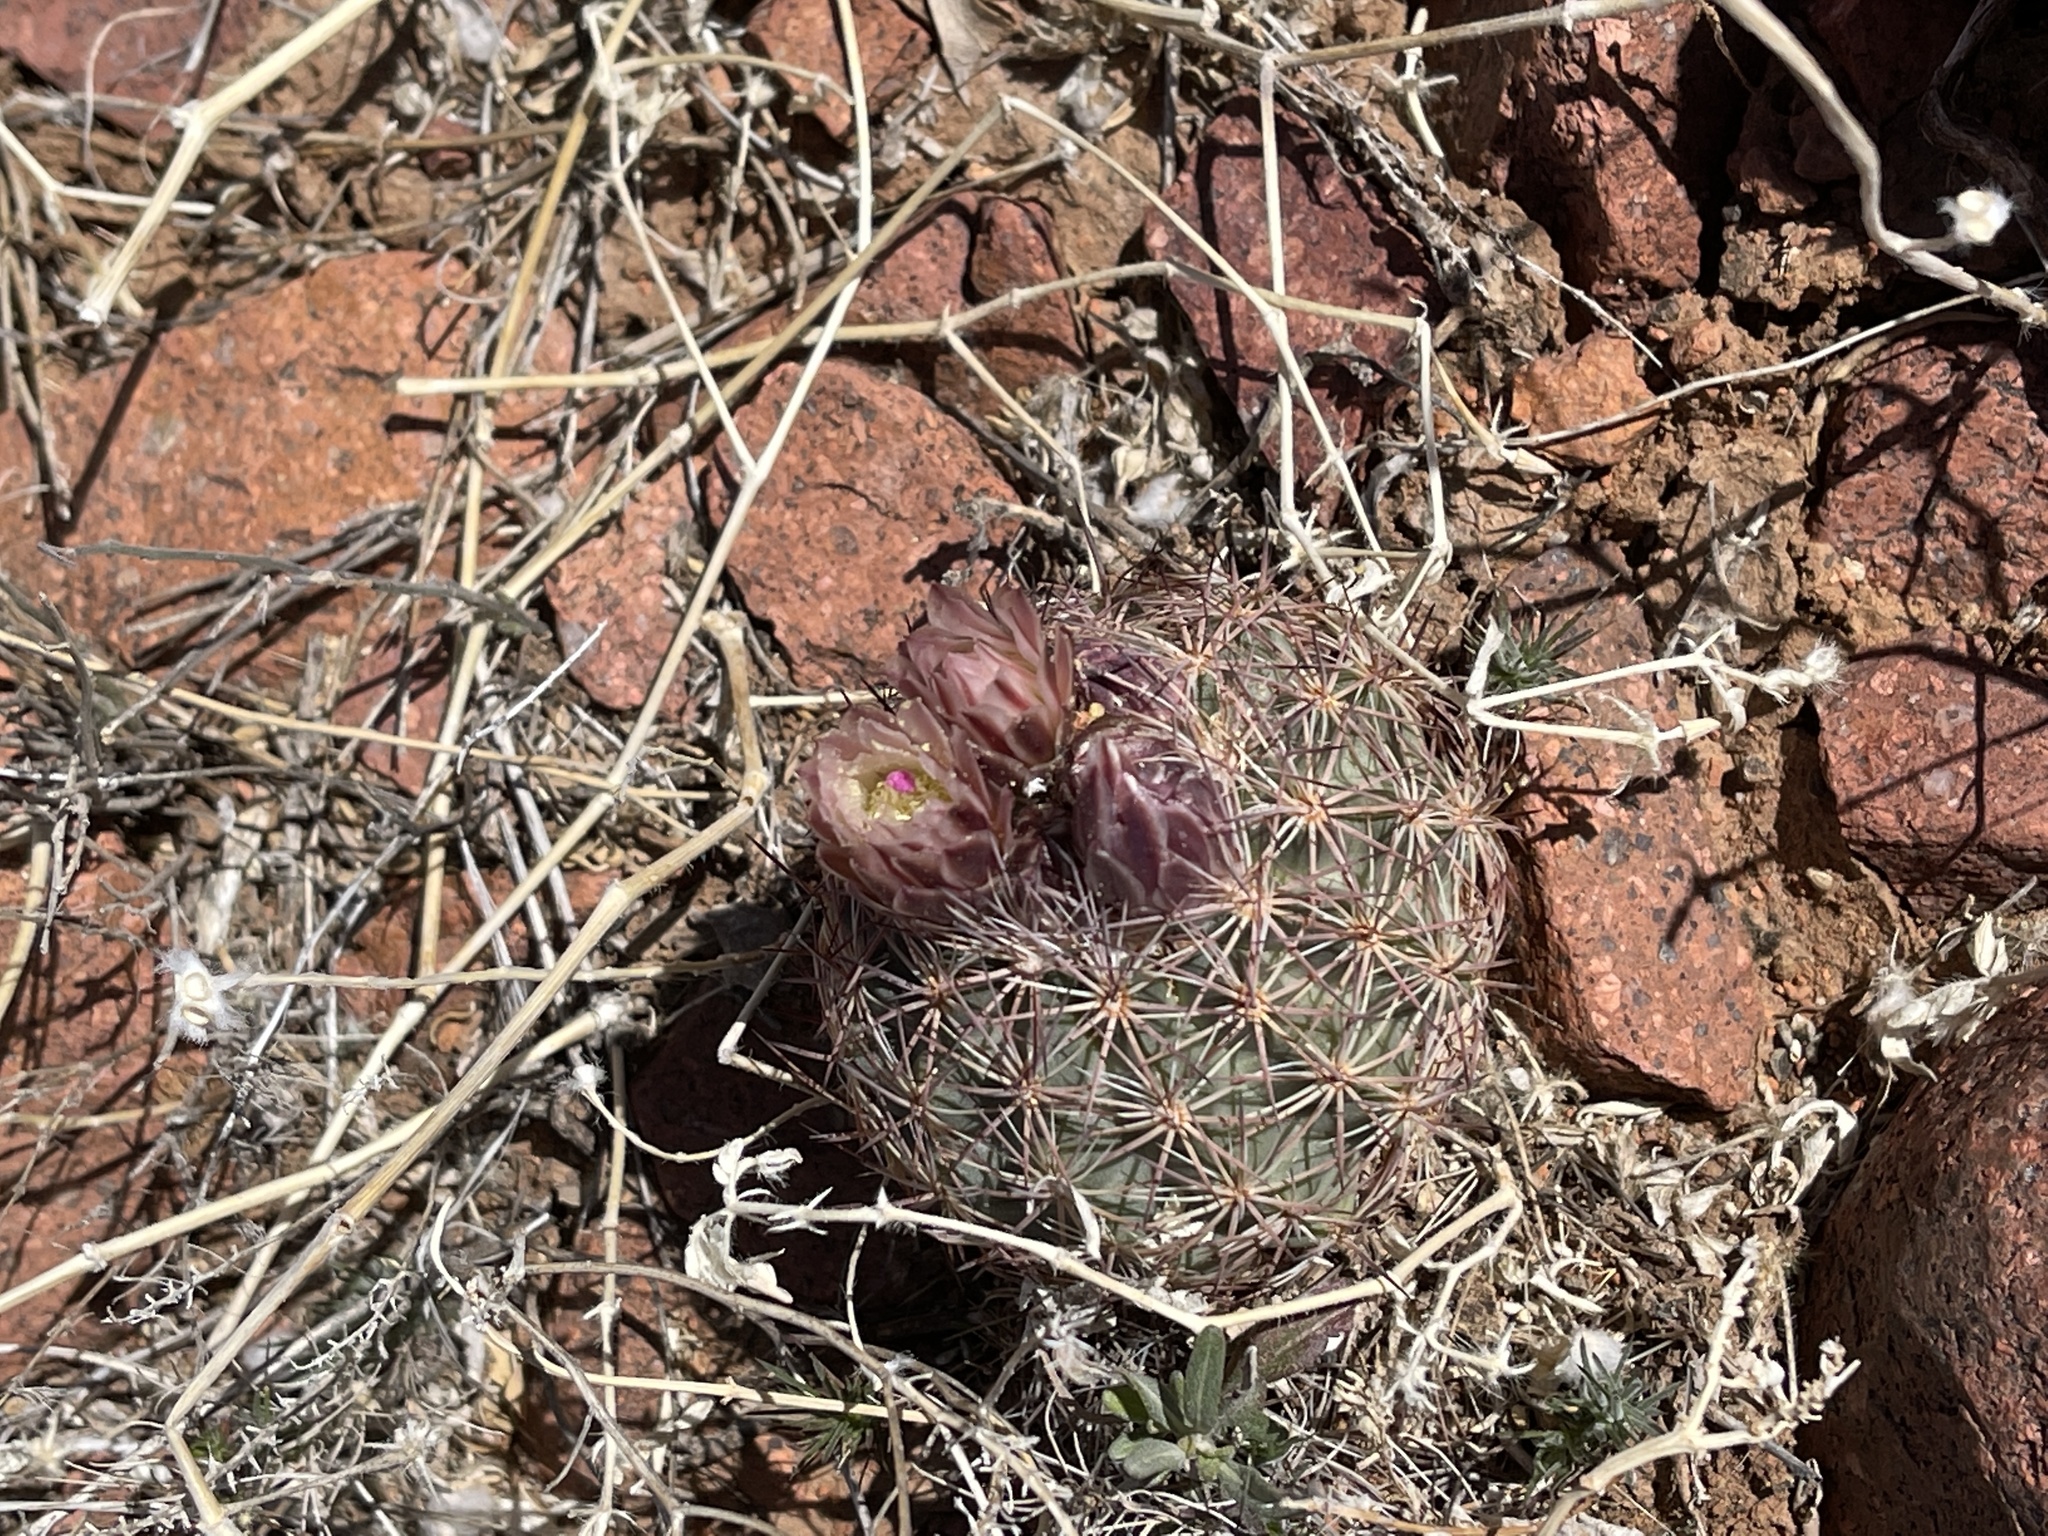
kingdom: Plantae
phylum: Tracheophyta
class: Magnoliopsida
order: Caryophyllales
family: Cactaceae
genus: Sclerocactus
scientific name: Sclerocactus intertextus
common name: White fish-hook cactus
